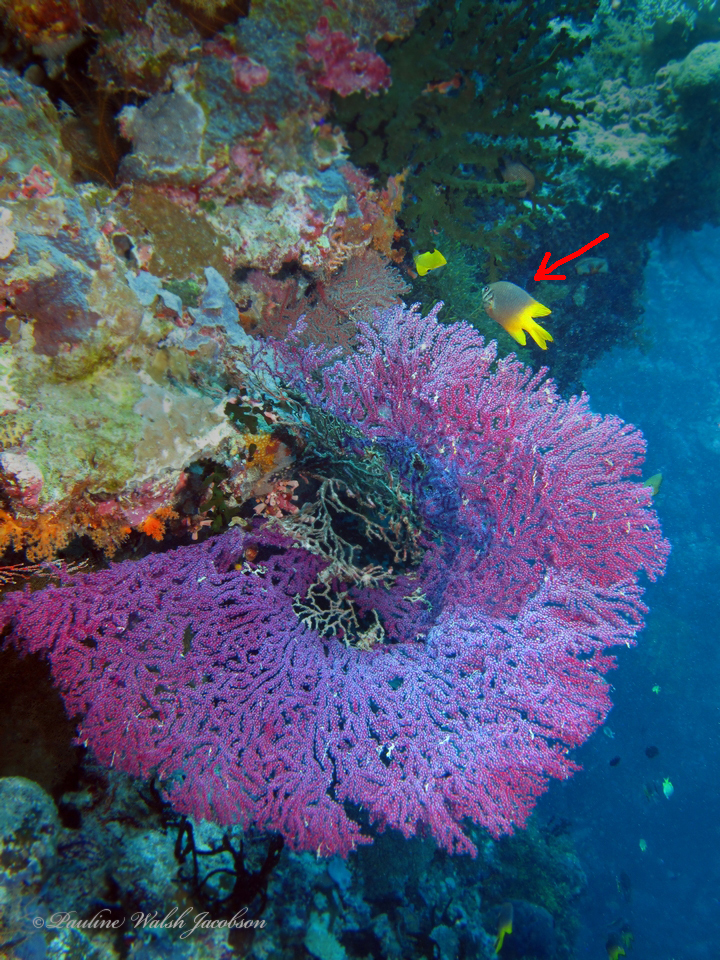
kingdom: Animalia
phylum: Chordata
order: Perciformes
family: Pomacentridae
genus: Neoglyphidodon
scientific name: Neoglyphidodon nigroris
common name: Behn's damsel
